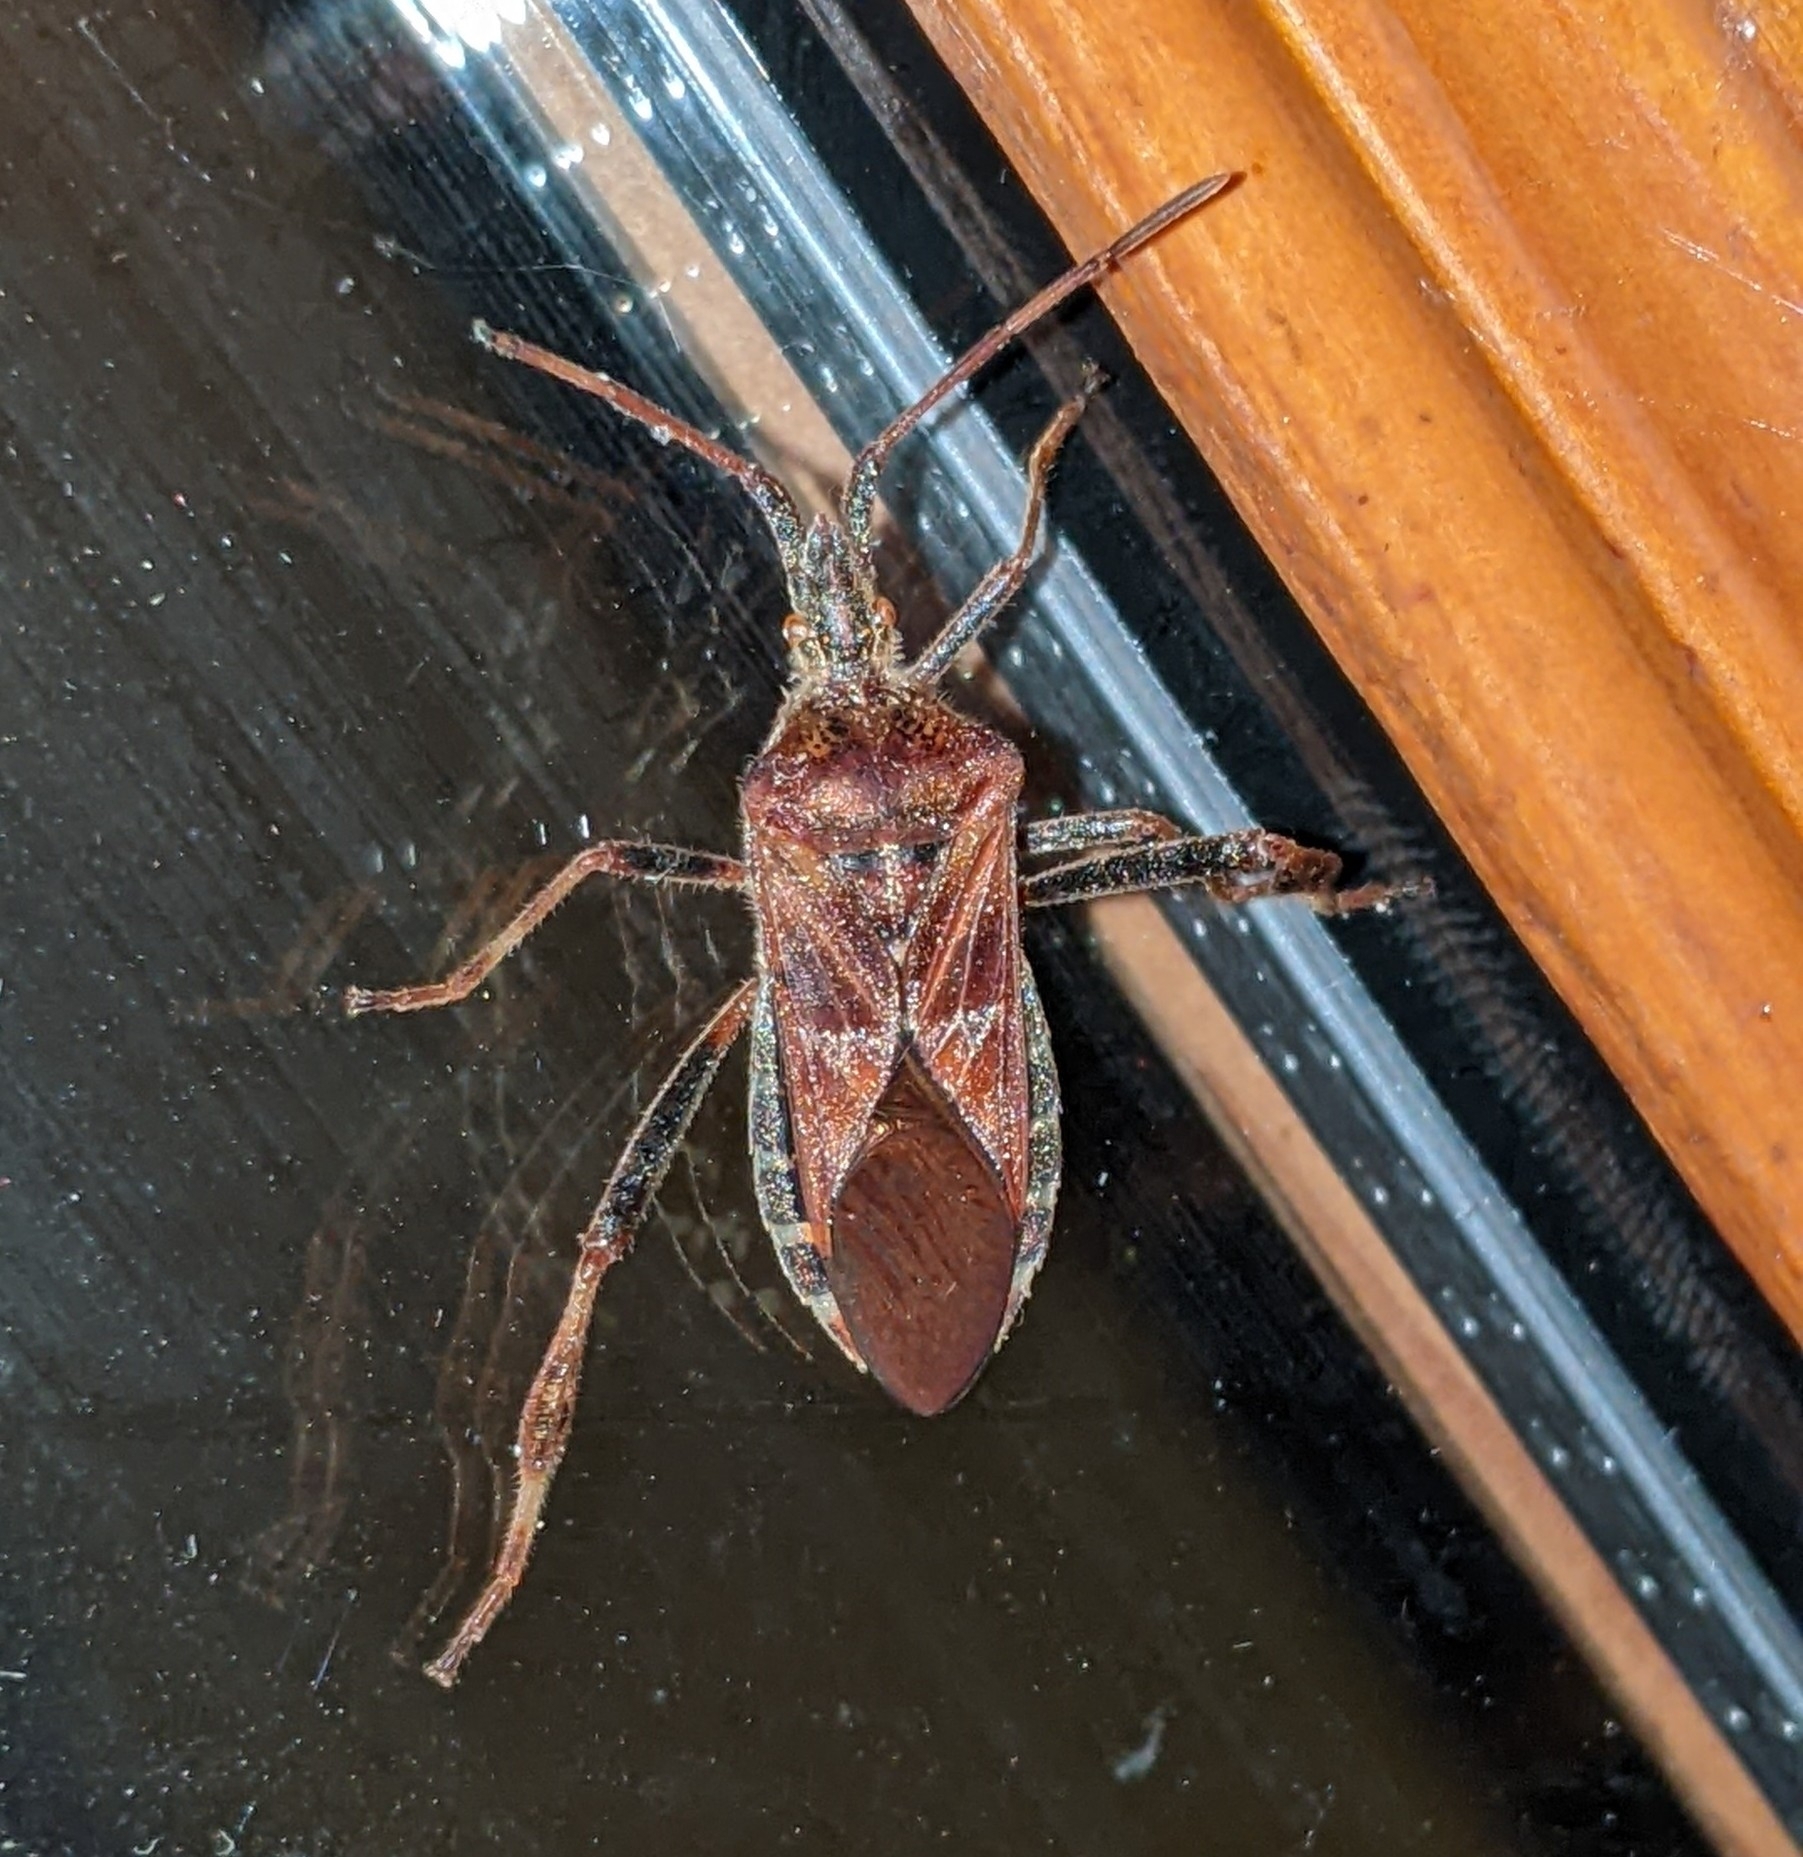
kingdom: Animalia
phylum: Arthropoda
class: Insecta
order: Hemiptera
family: Coreidae
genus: Leptoglossus
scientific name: Leptoglossus occidentalis
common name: Western conifer-seed bug
